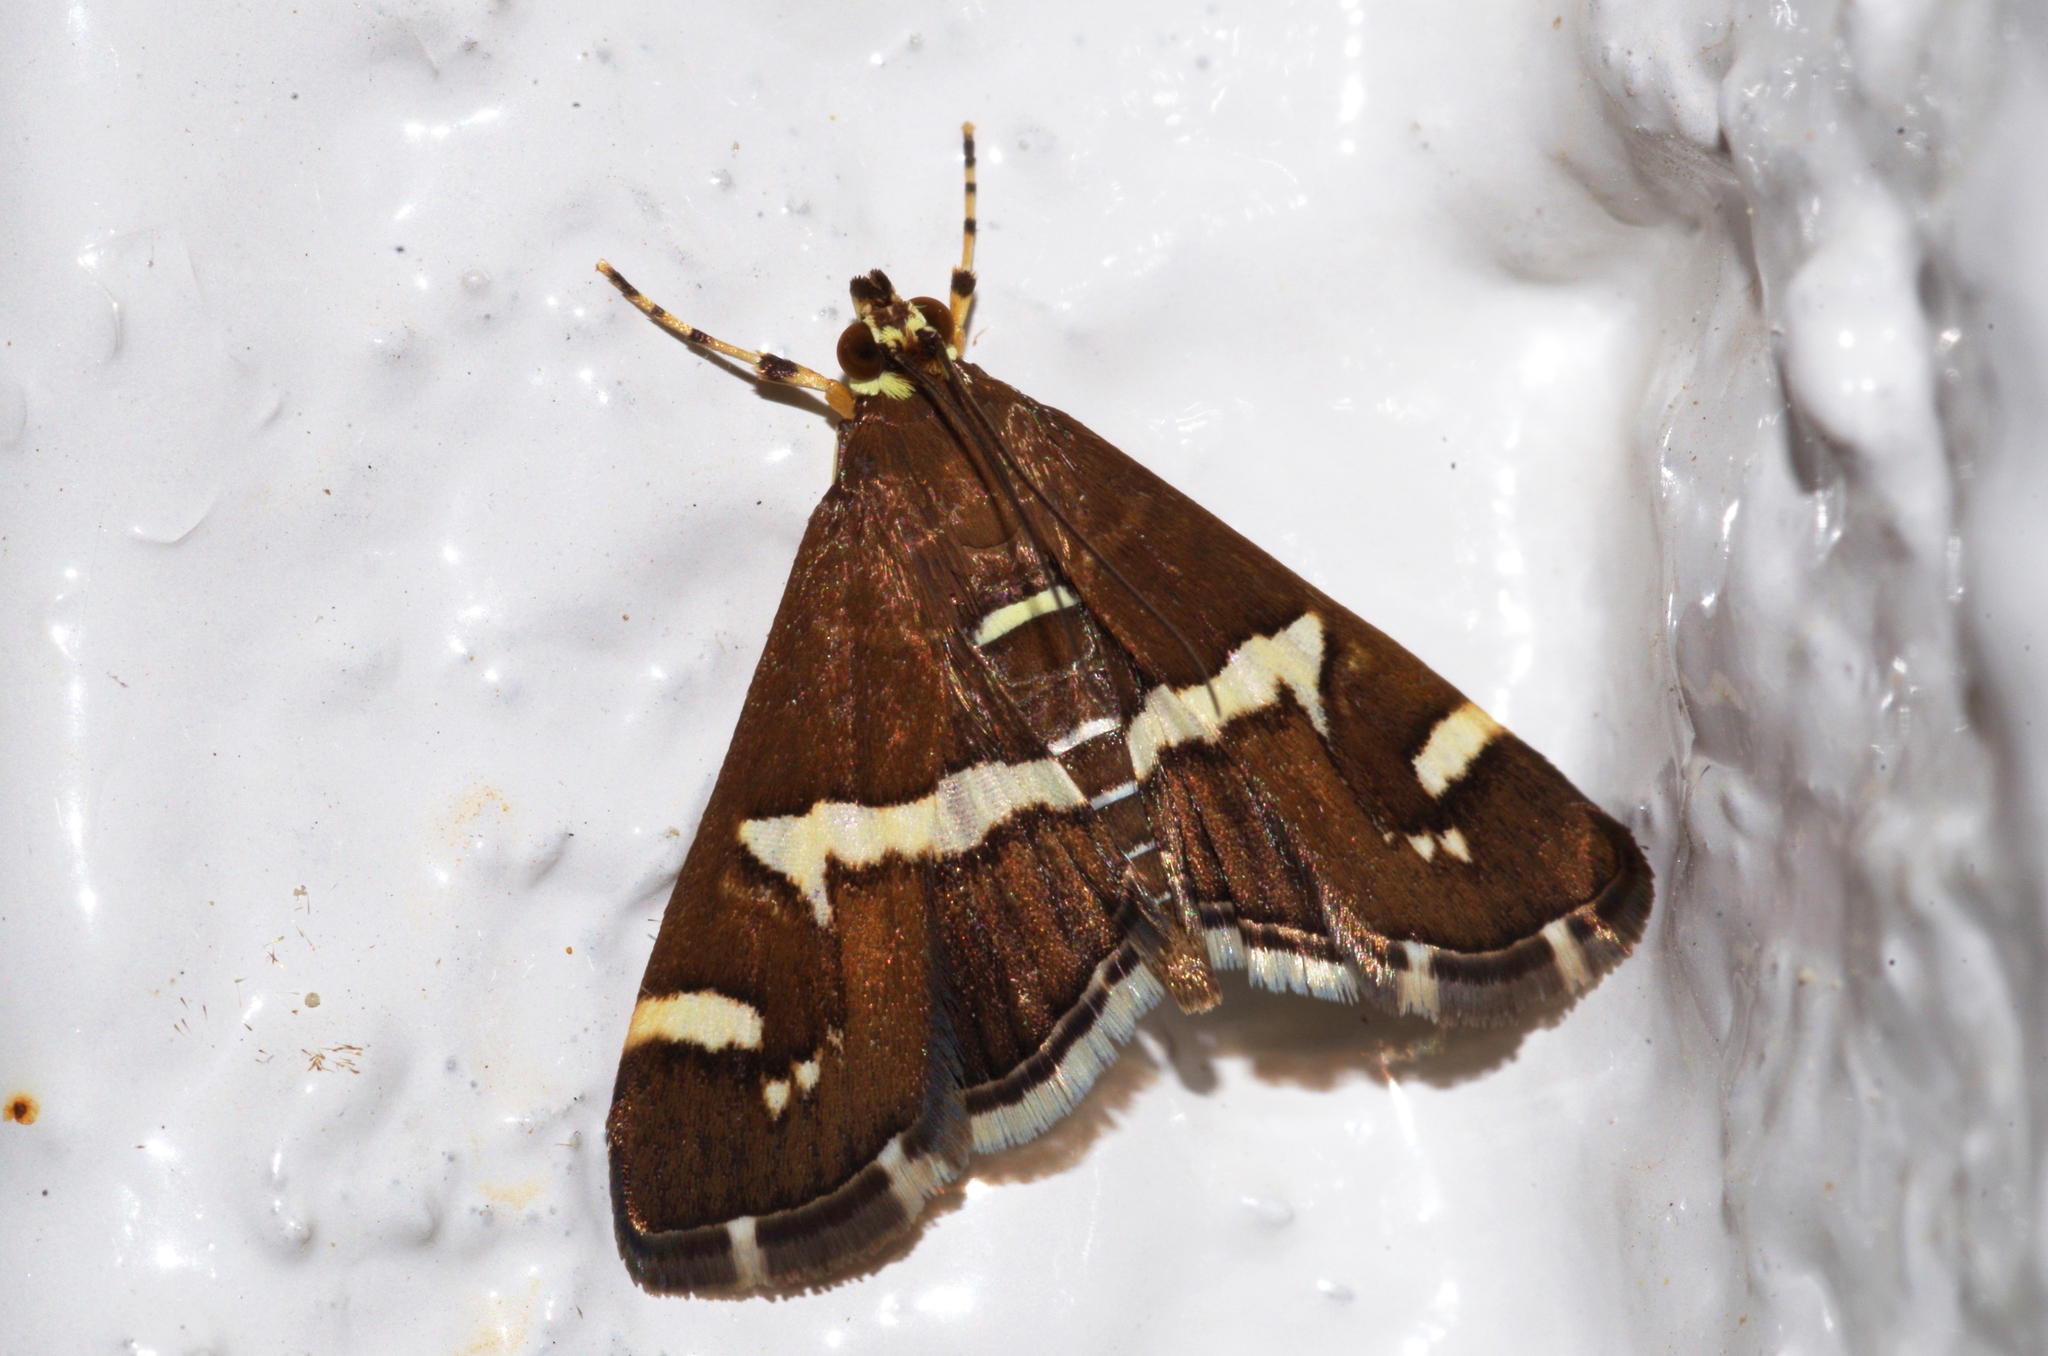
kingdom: Animalia
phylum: Arthropoda
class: Insecta
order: Lepidoptera
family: Crambidae
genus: Spoladea
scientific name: Spoladea recurvalis
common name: Beet webworm moth
